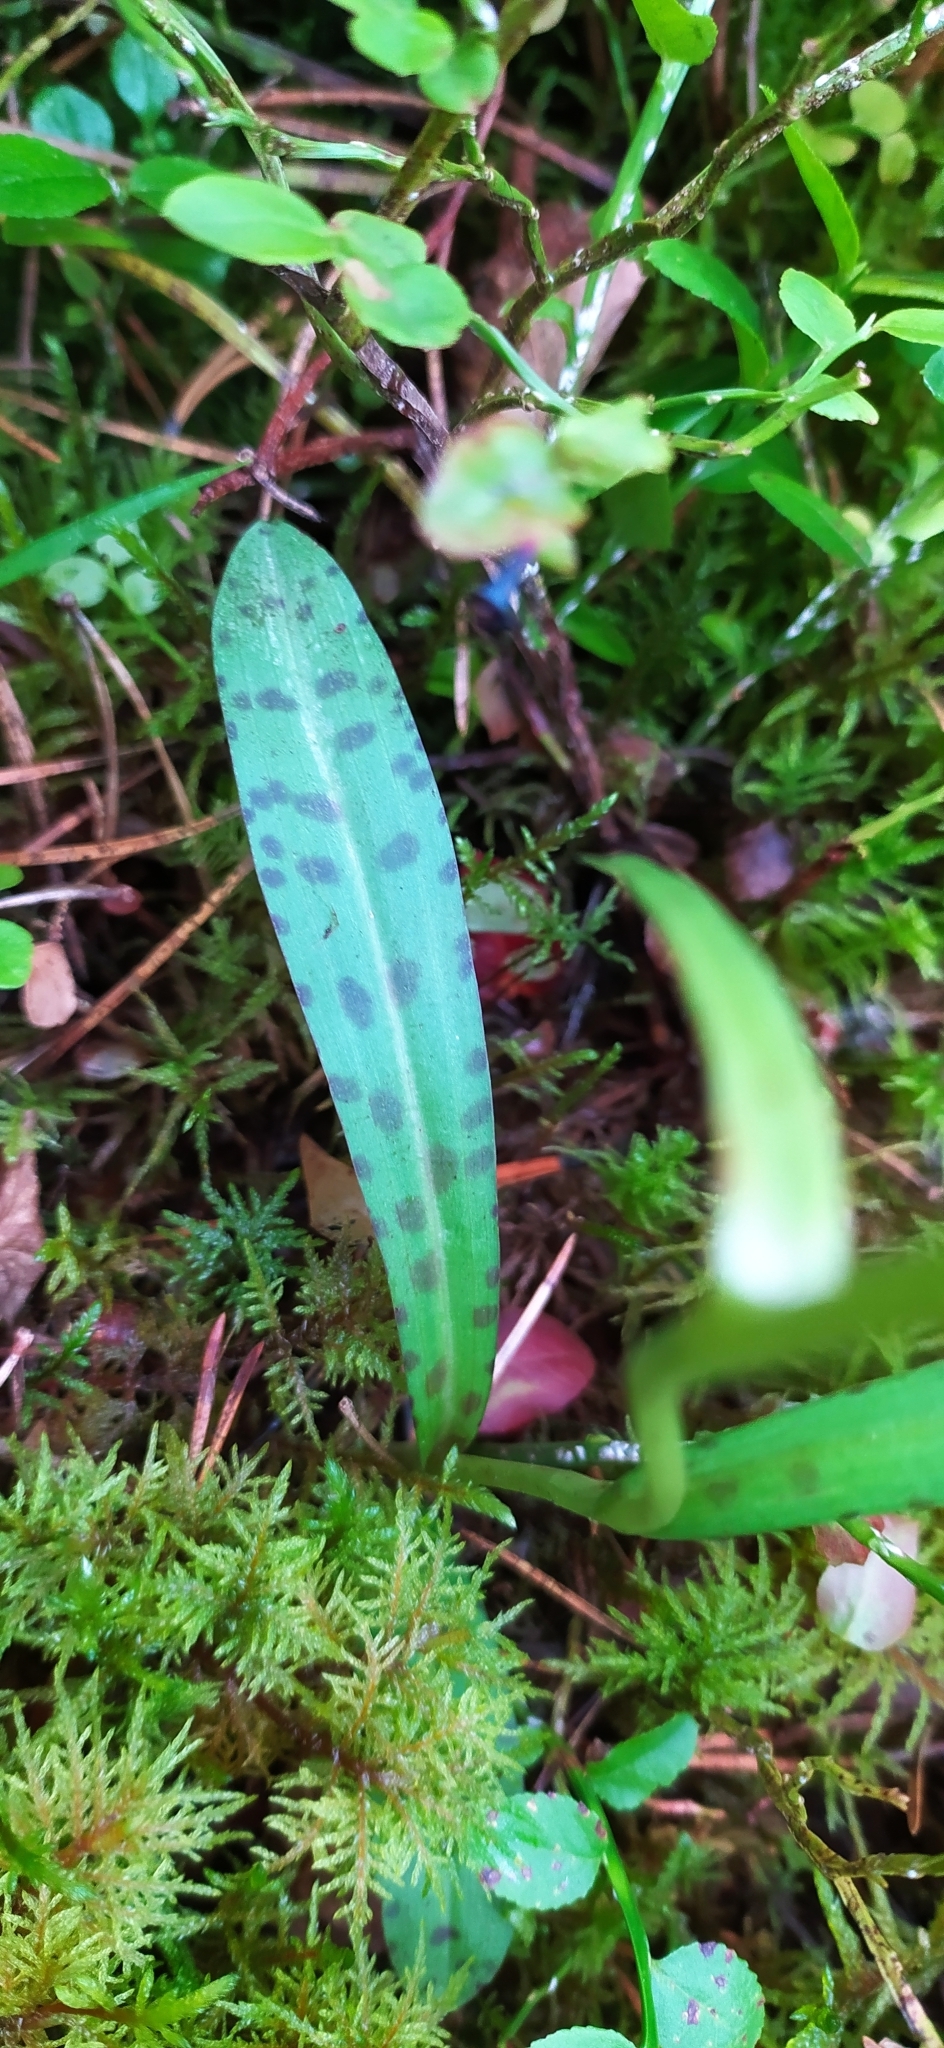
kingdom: Plantae
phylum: Tracheophyta
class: Liliopsida
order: Asparagales
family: Orchidaceae
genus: Dactylorhiza
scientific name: Dactylorhiza maculata
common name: Heath spotted-orchid
